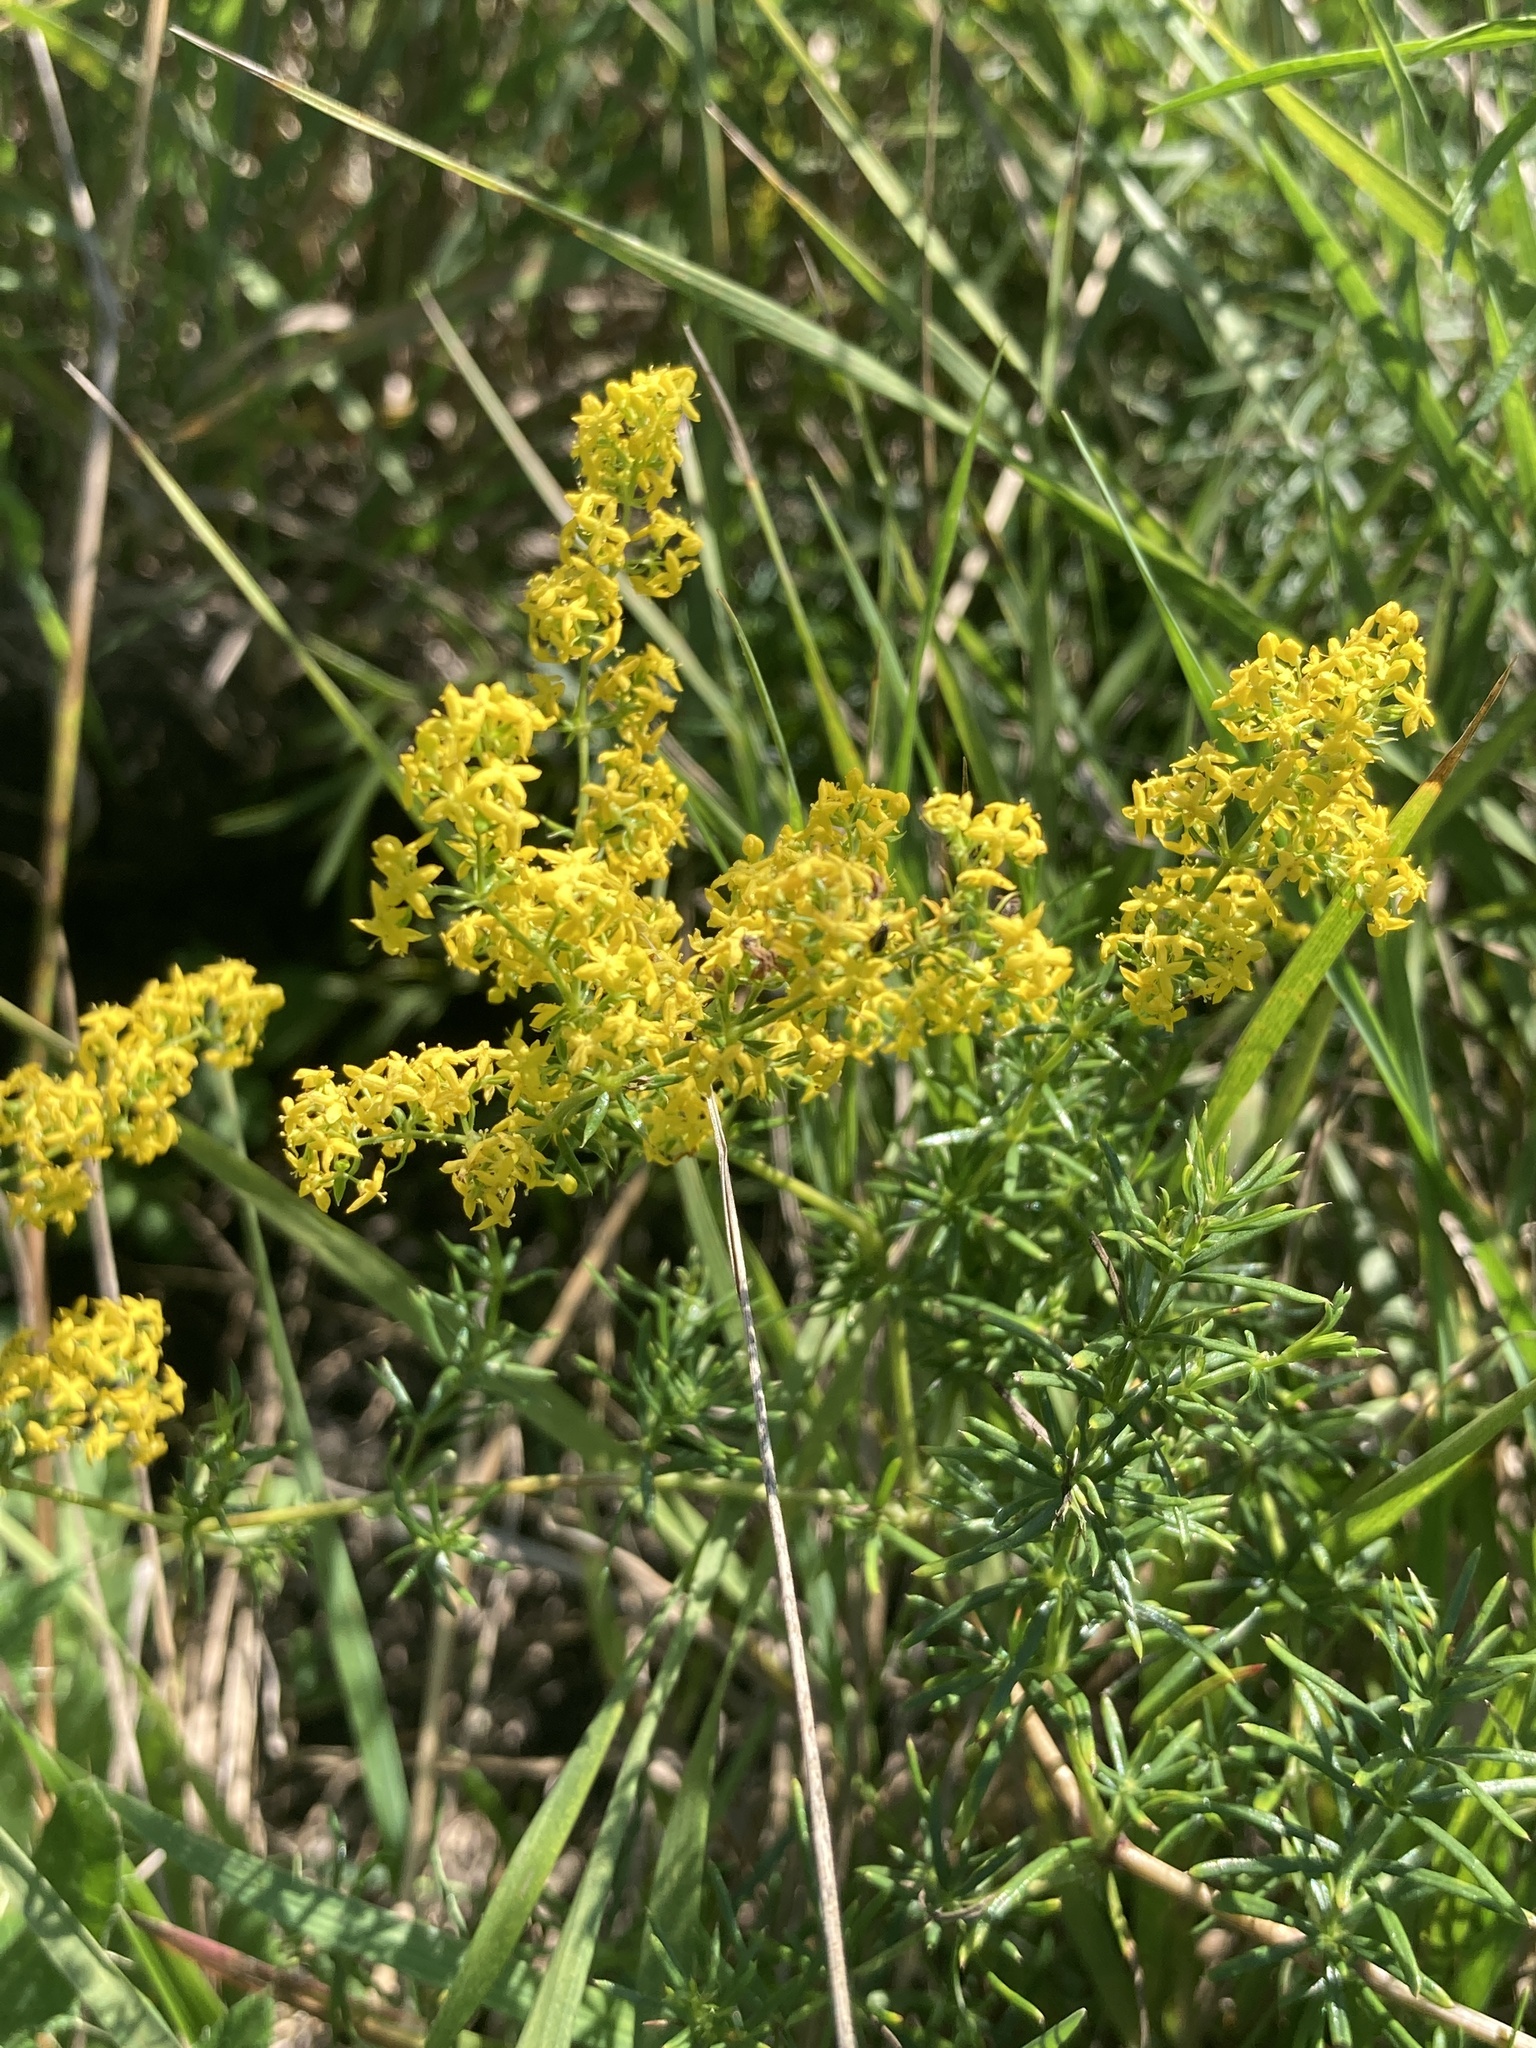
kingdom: Plantae
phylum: Tracheophyta
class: Magnoliopsida
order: Gentianales
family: Rubiaceae
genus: Galium
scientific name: Galium verum
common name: Lady's bedstraw
